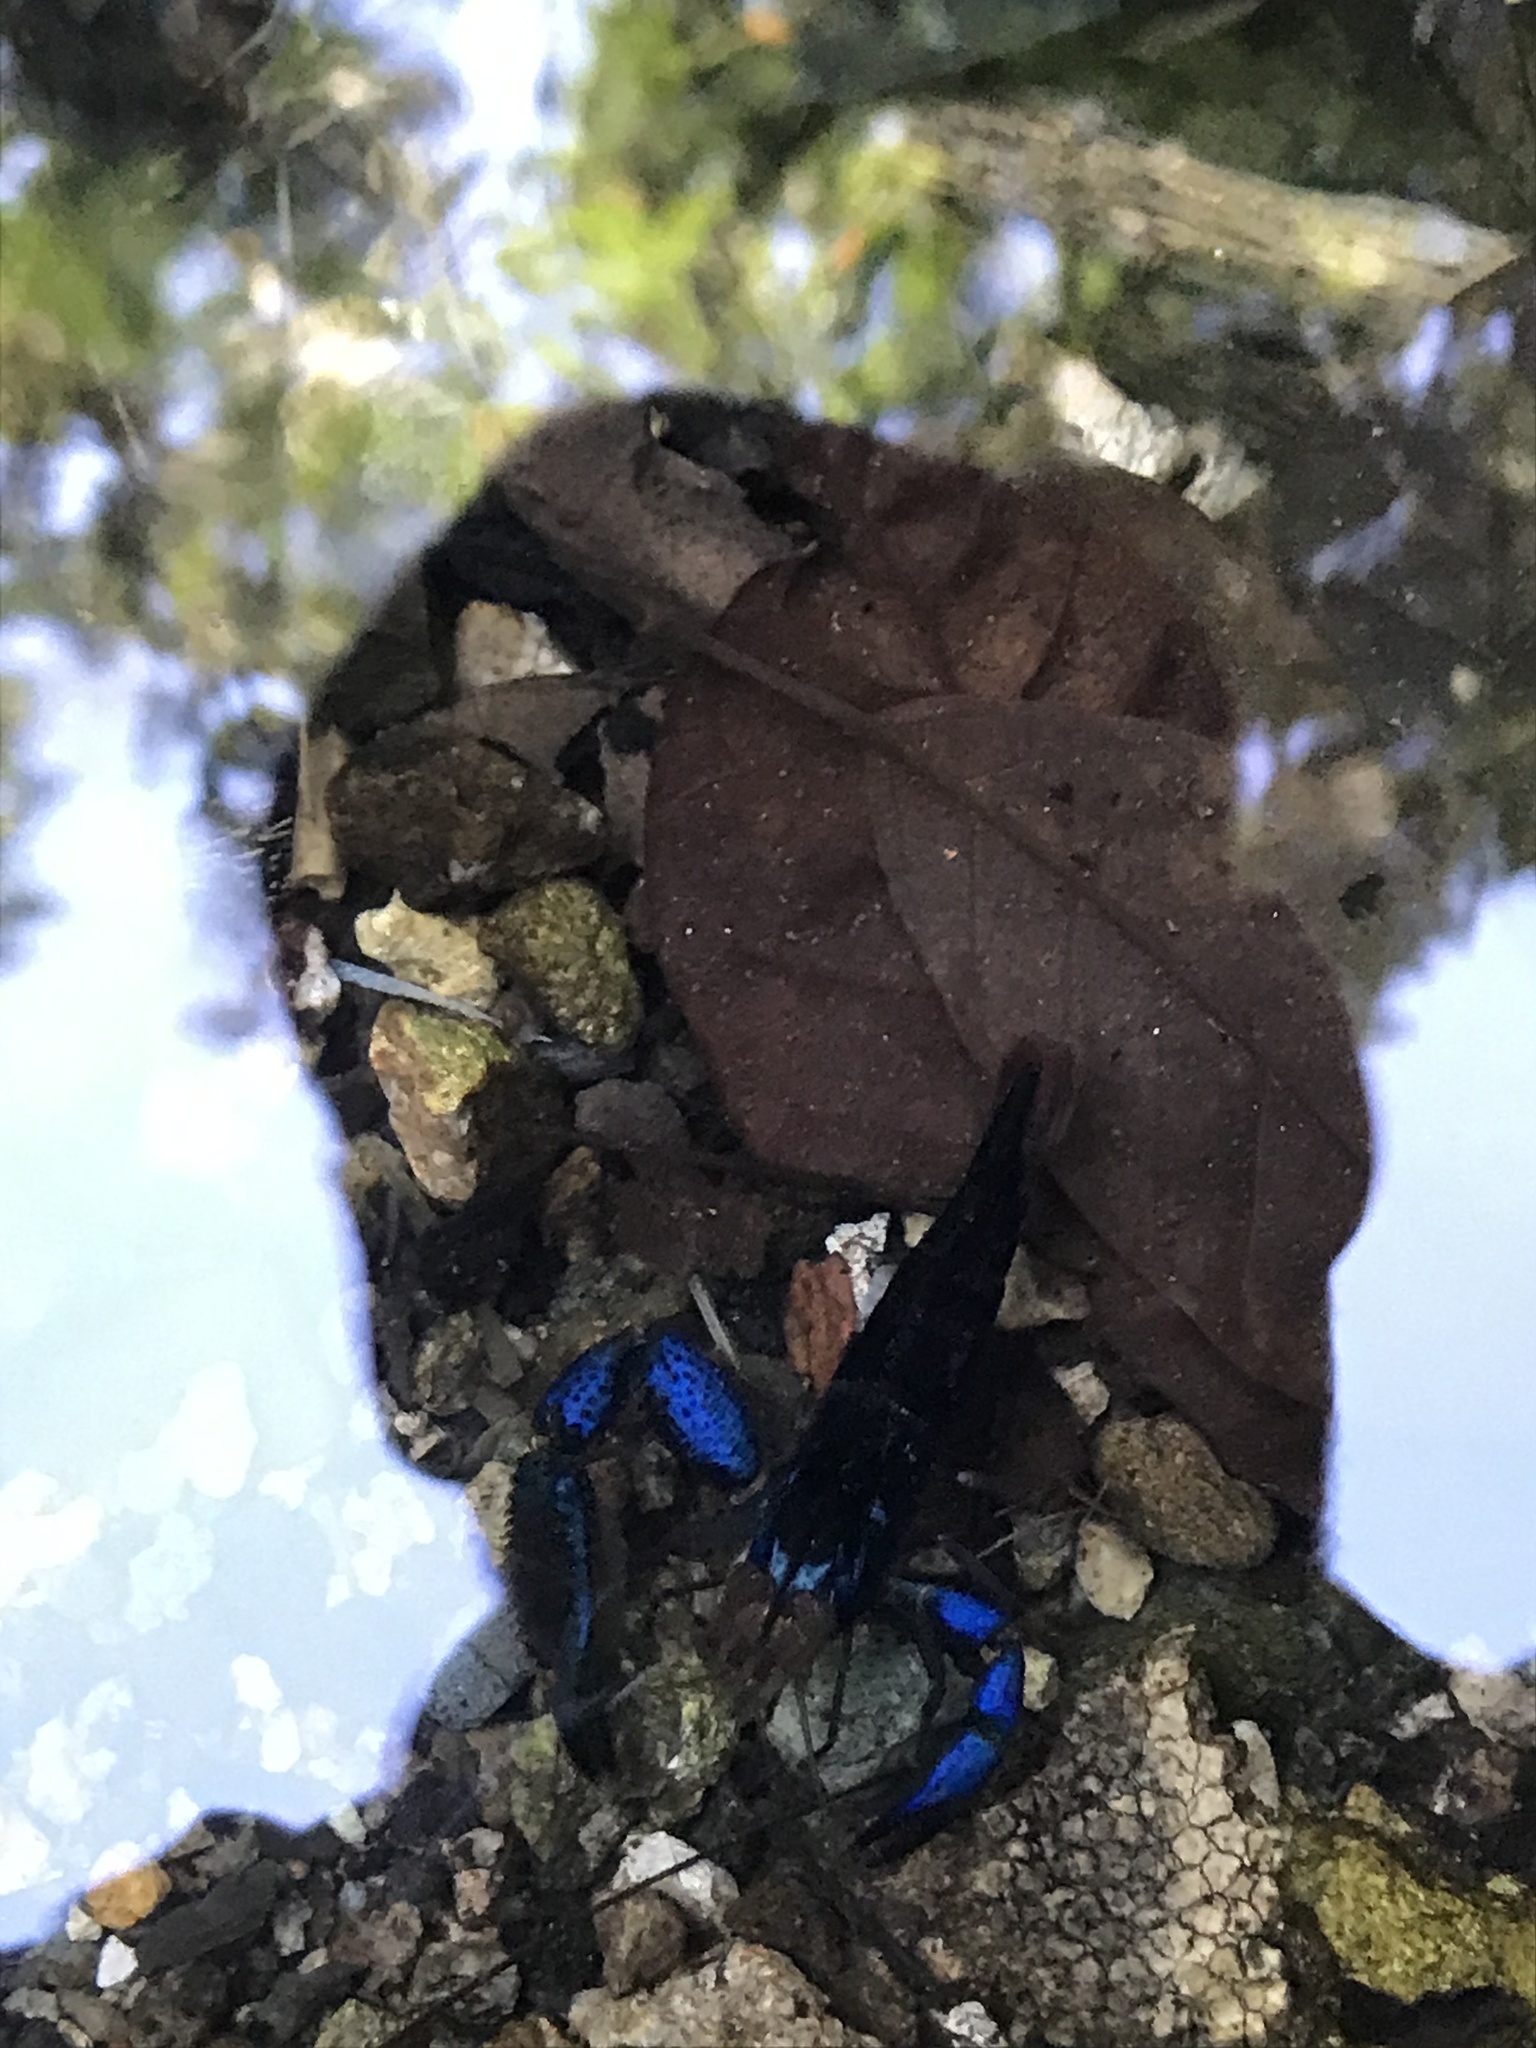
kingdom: Animalia
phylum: Arthropoda
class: Malacostraca
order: Decapoda
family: Palaemonidae
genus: Macrobrachium
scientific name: Macrobrachium hancocki
